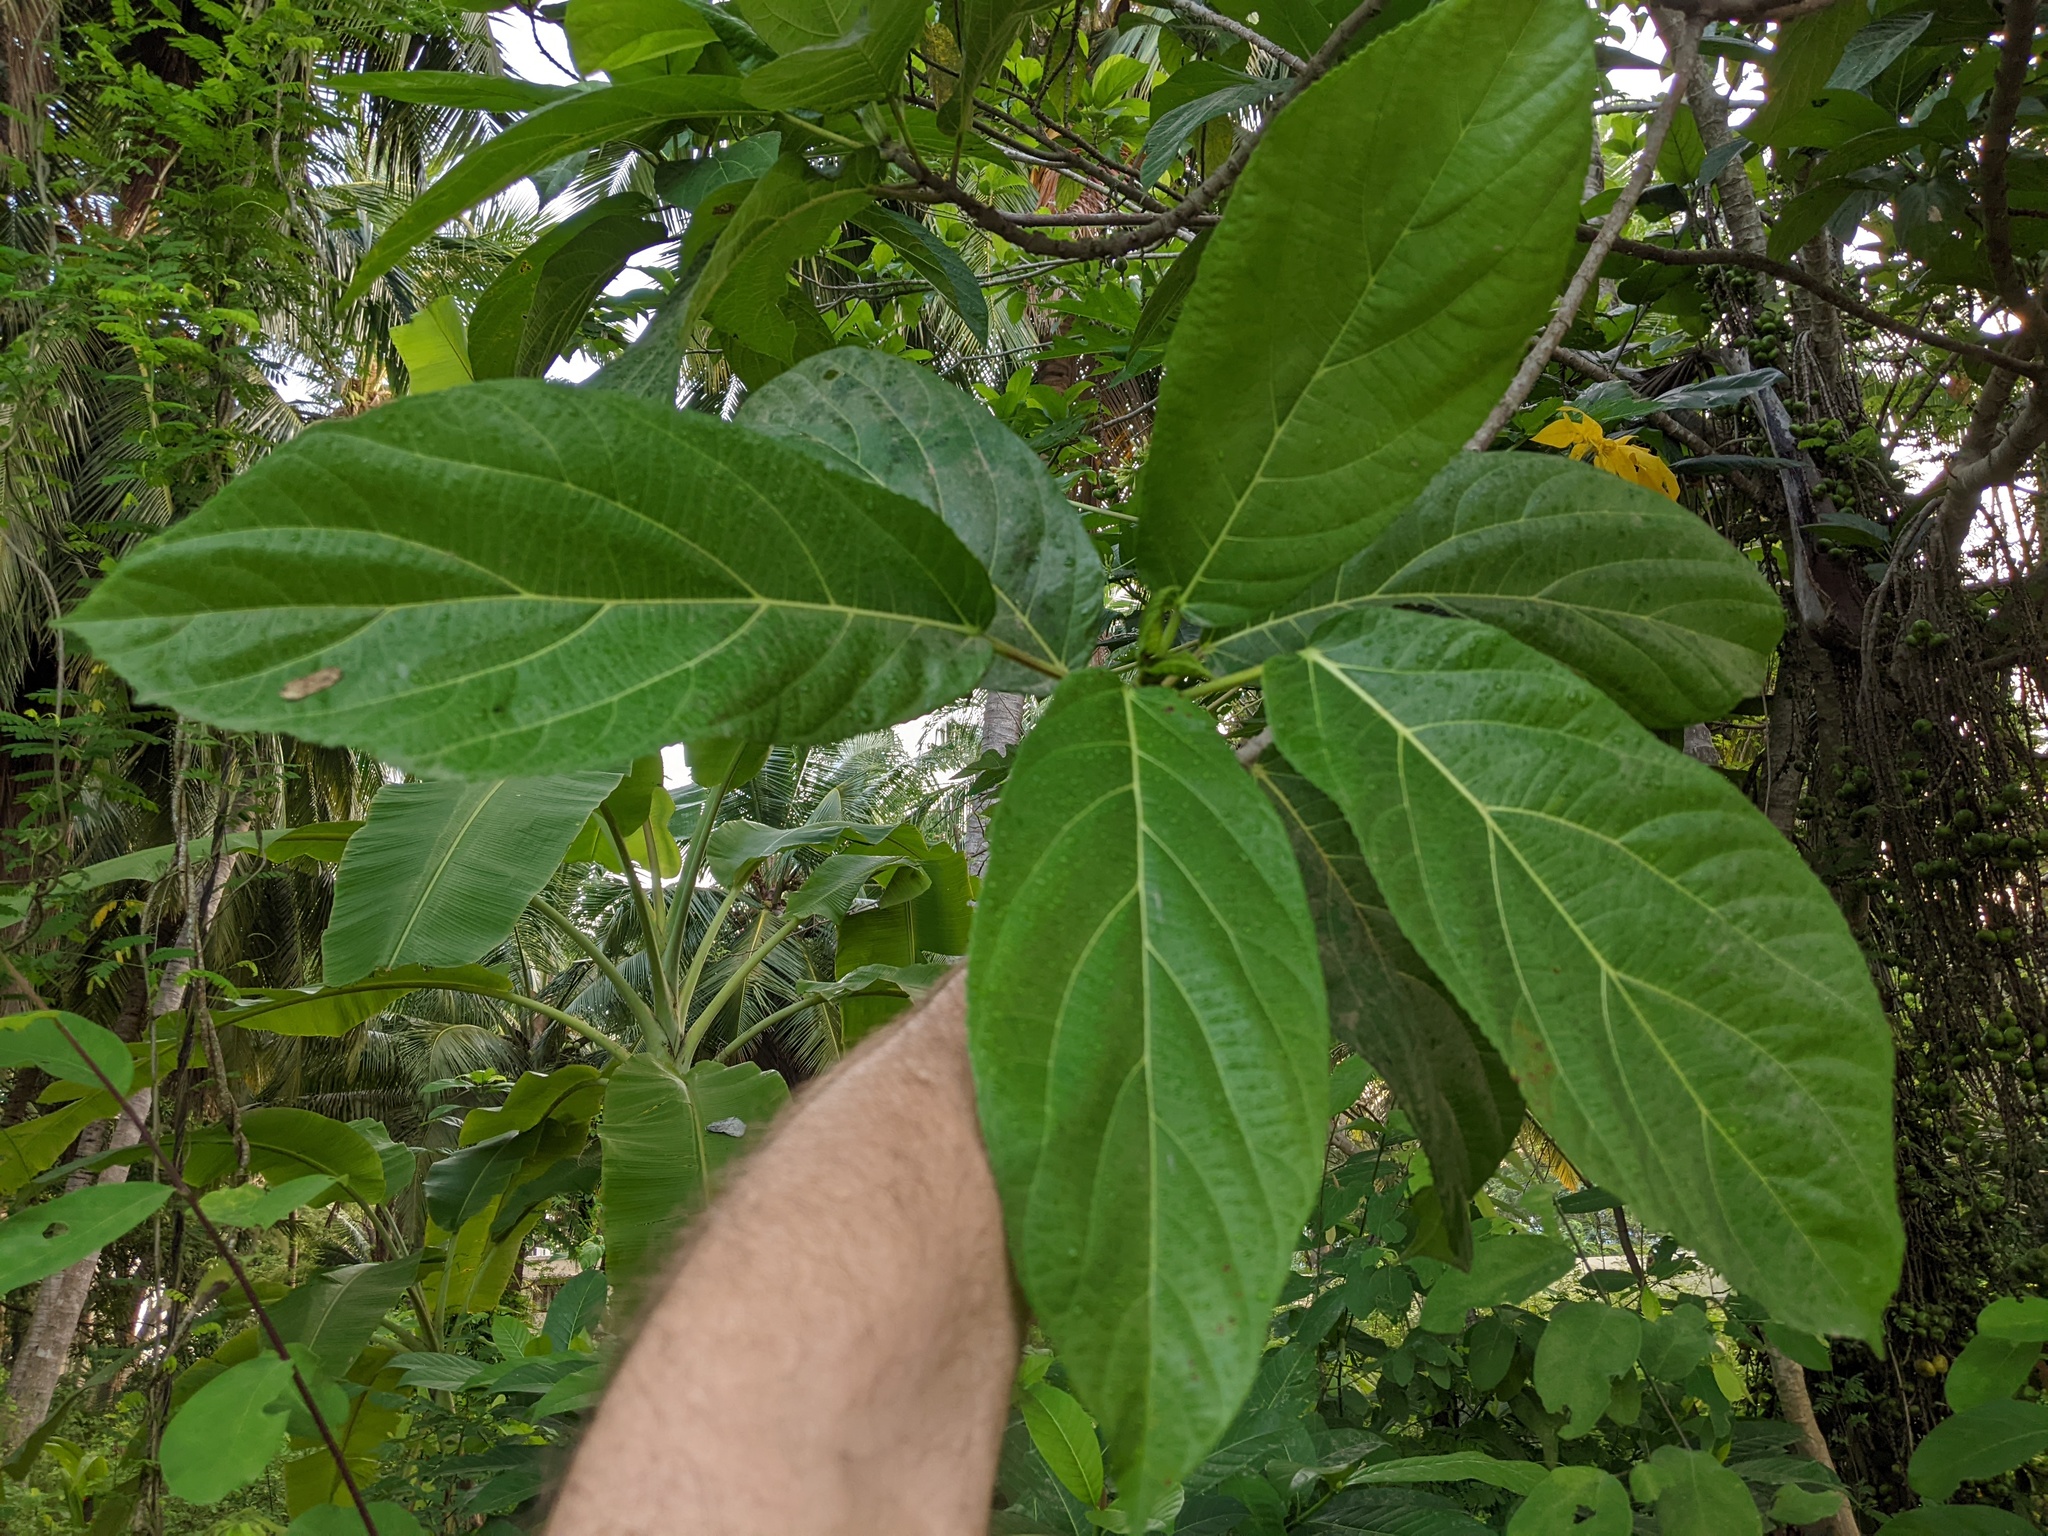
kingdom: Plantae
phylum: Tracheophyta
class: Magnoliopsida
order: Rosales
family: Moraceae
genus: Ficus
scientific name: Ficus hispida
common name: Hairy fig
